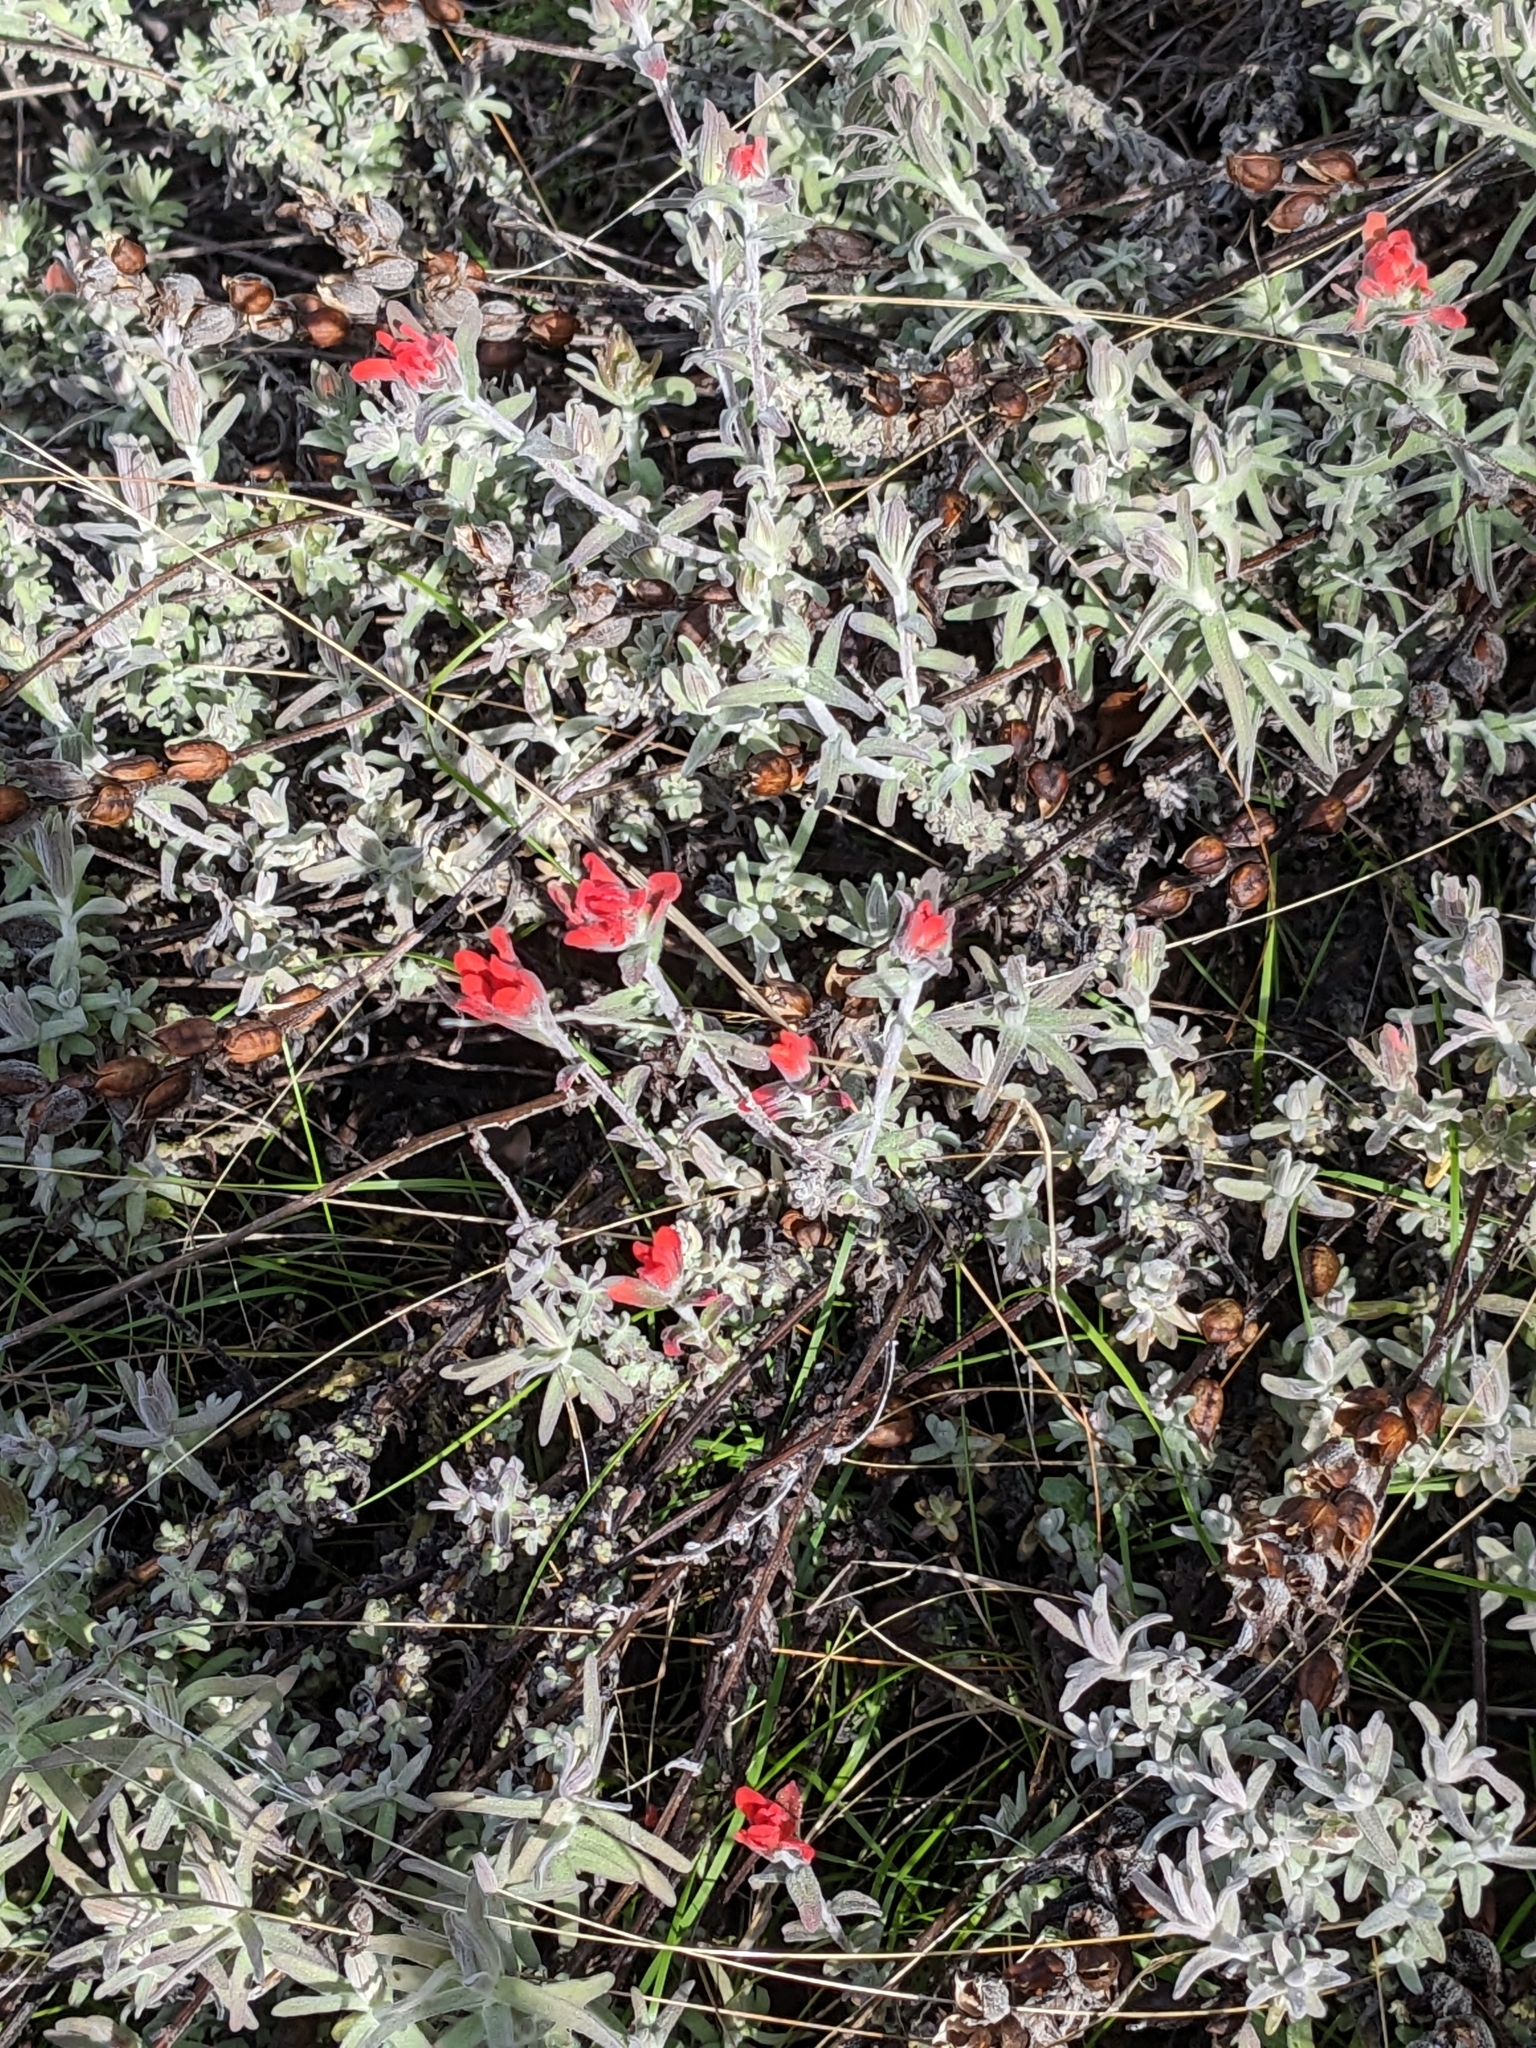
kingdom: Plantae
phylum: Tracheophyta
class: Magnoliopsida
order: Lamiales
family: Orobanchaceae
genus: Castilleja
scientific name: Castilleja foliolosa
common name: Woolly indian paintbrush
